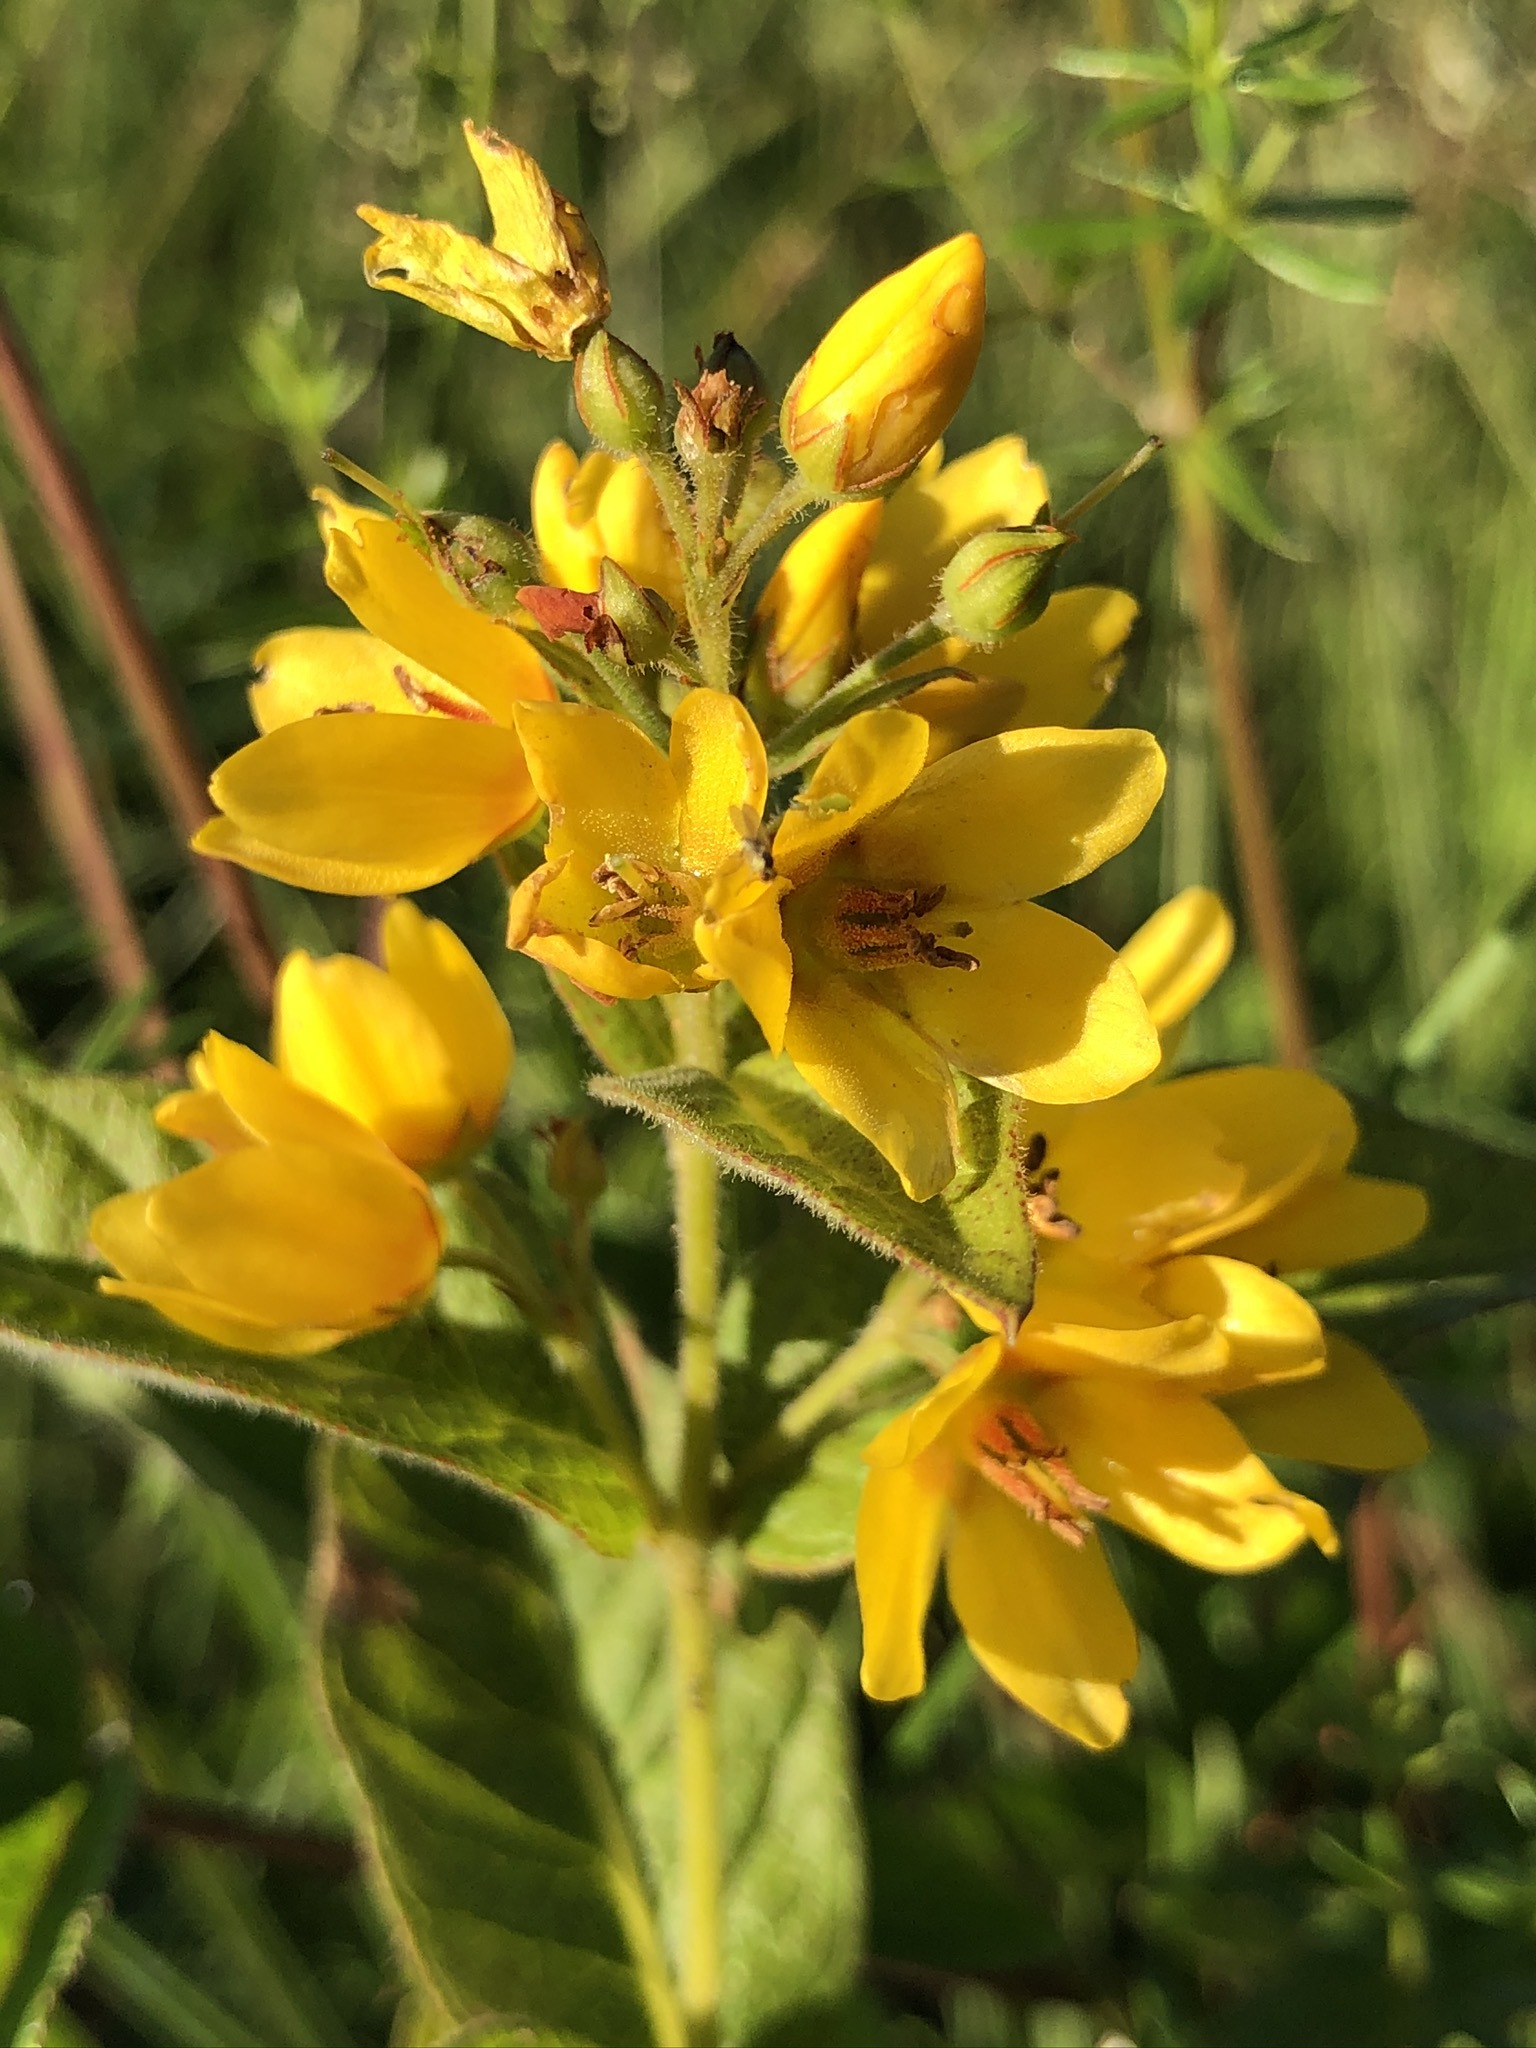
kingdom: Plantae
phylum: Tracheophyta
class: Magnoliopsida
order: Ericales
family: Primulaceae
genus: Lysimachia
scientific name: Lysimachia vulgaris
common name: Yellow loosestrife
